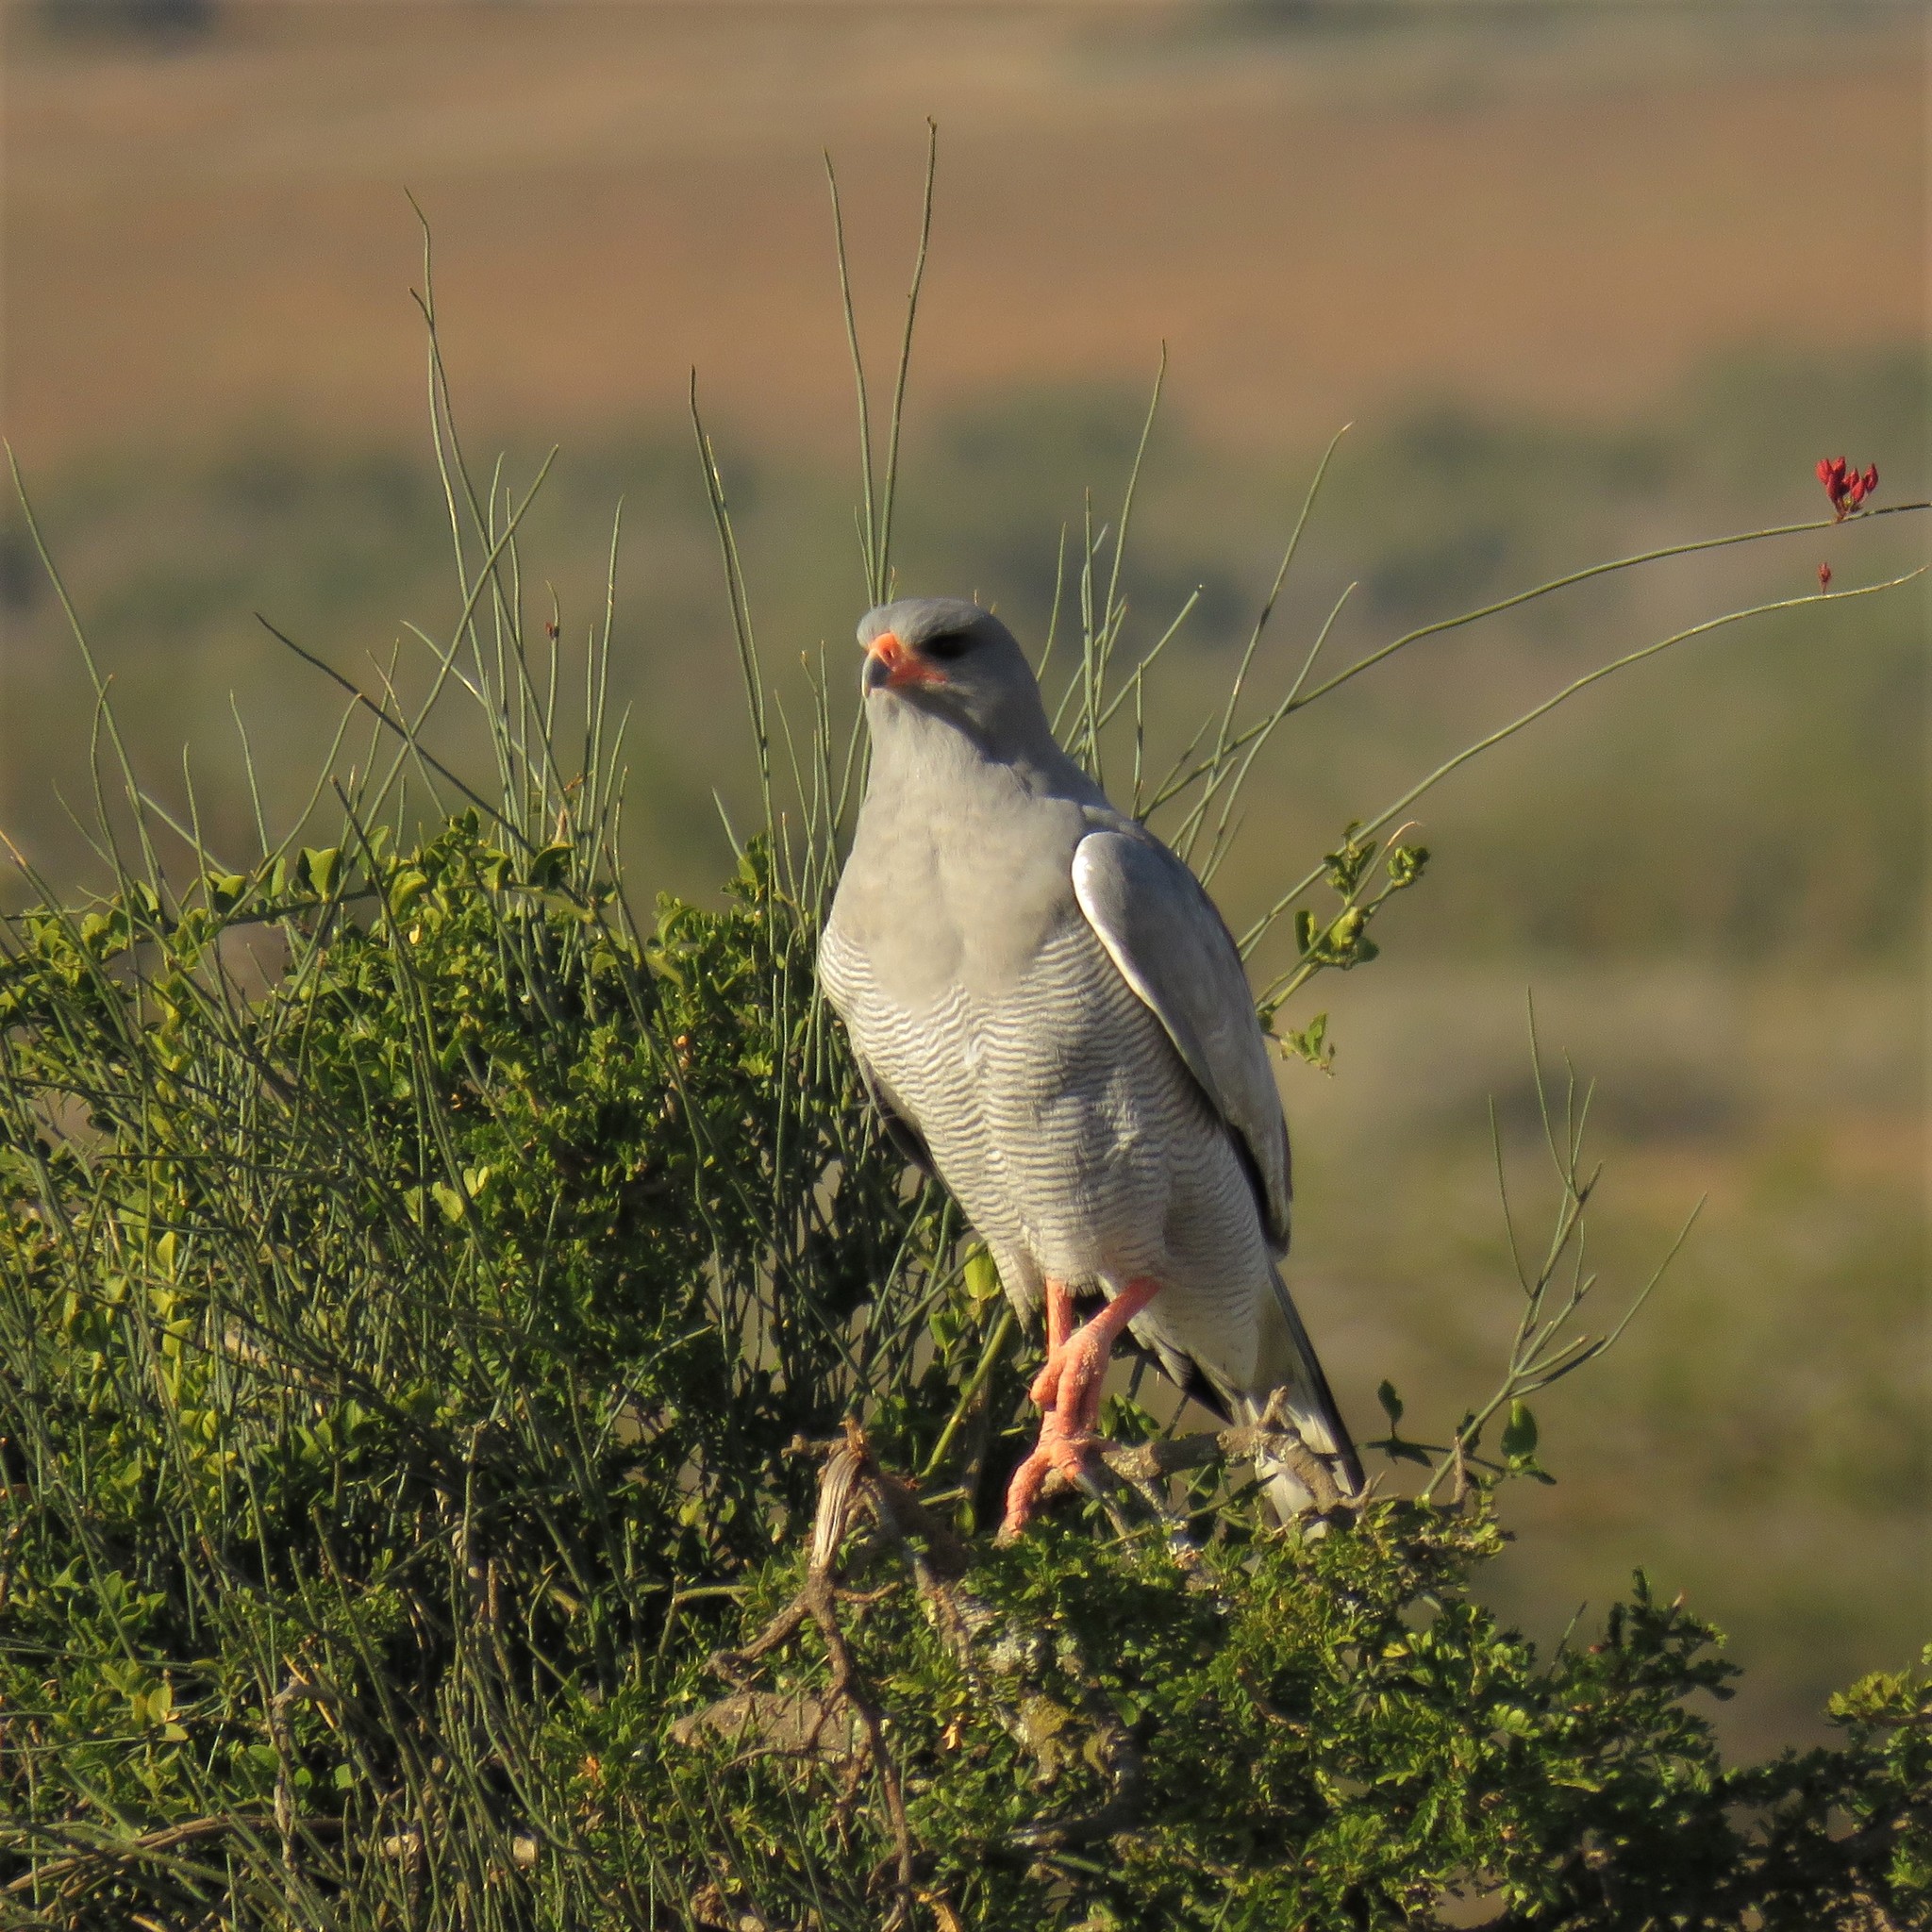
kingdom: Animalia
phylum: Chordata
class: Aves
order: Accipitriformes
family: Accipitridae
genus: Melierax
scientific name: Melierax canorus
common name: Pale chanting-goshawk
